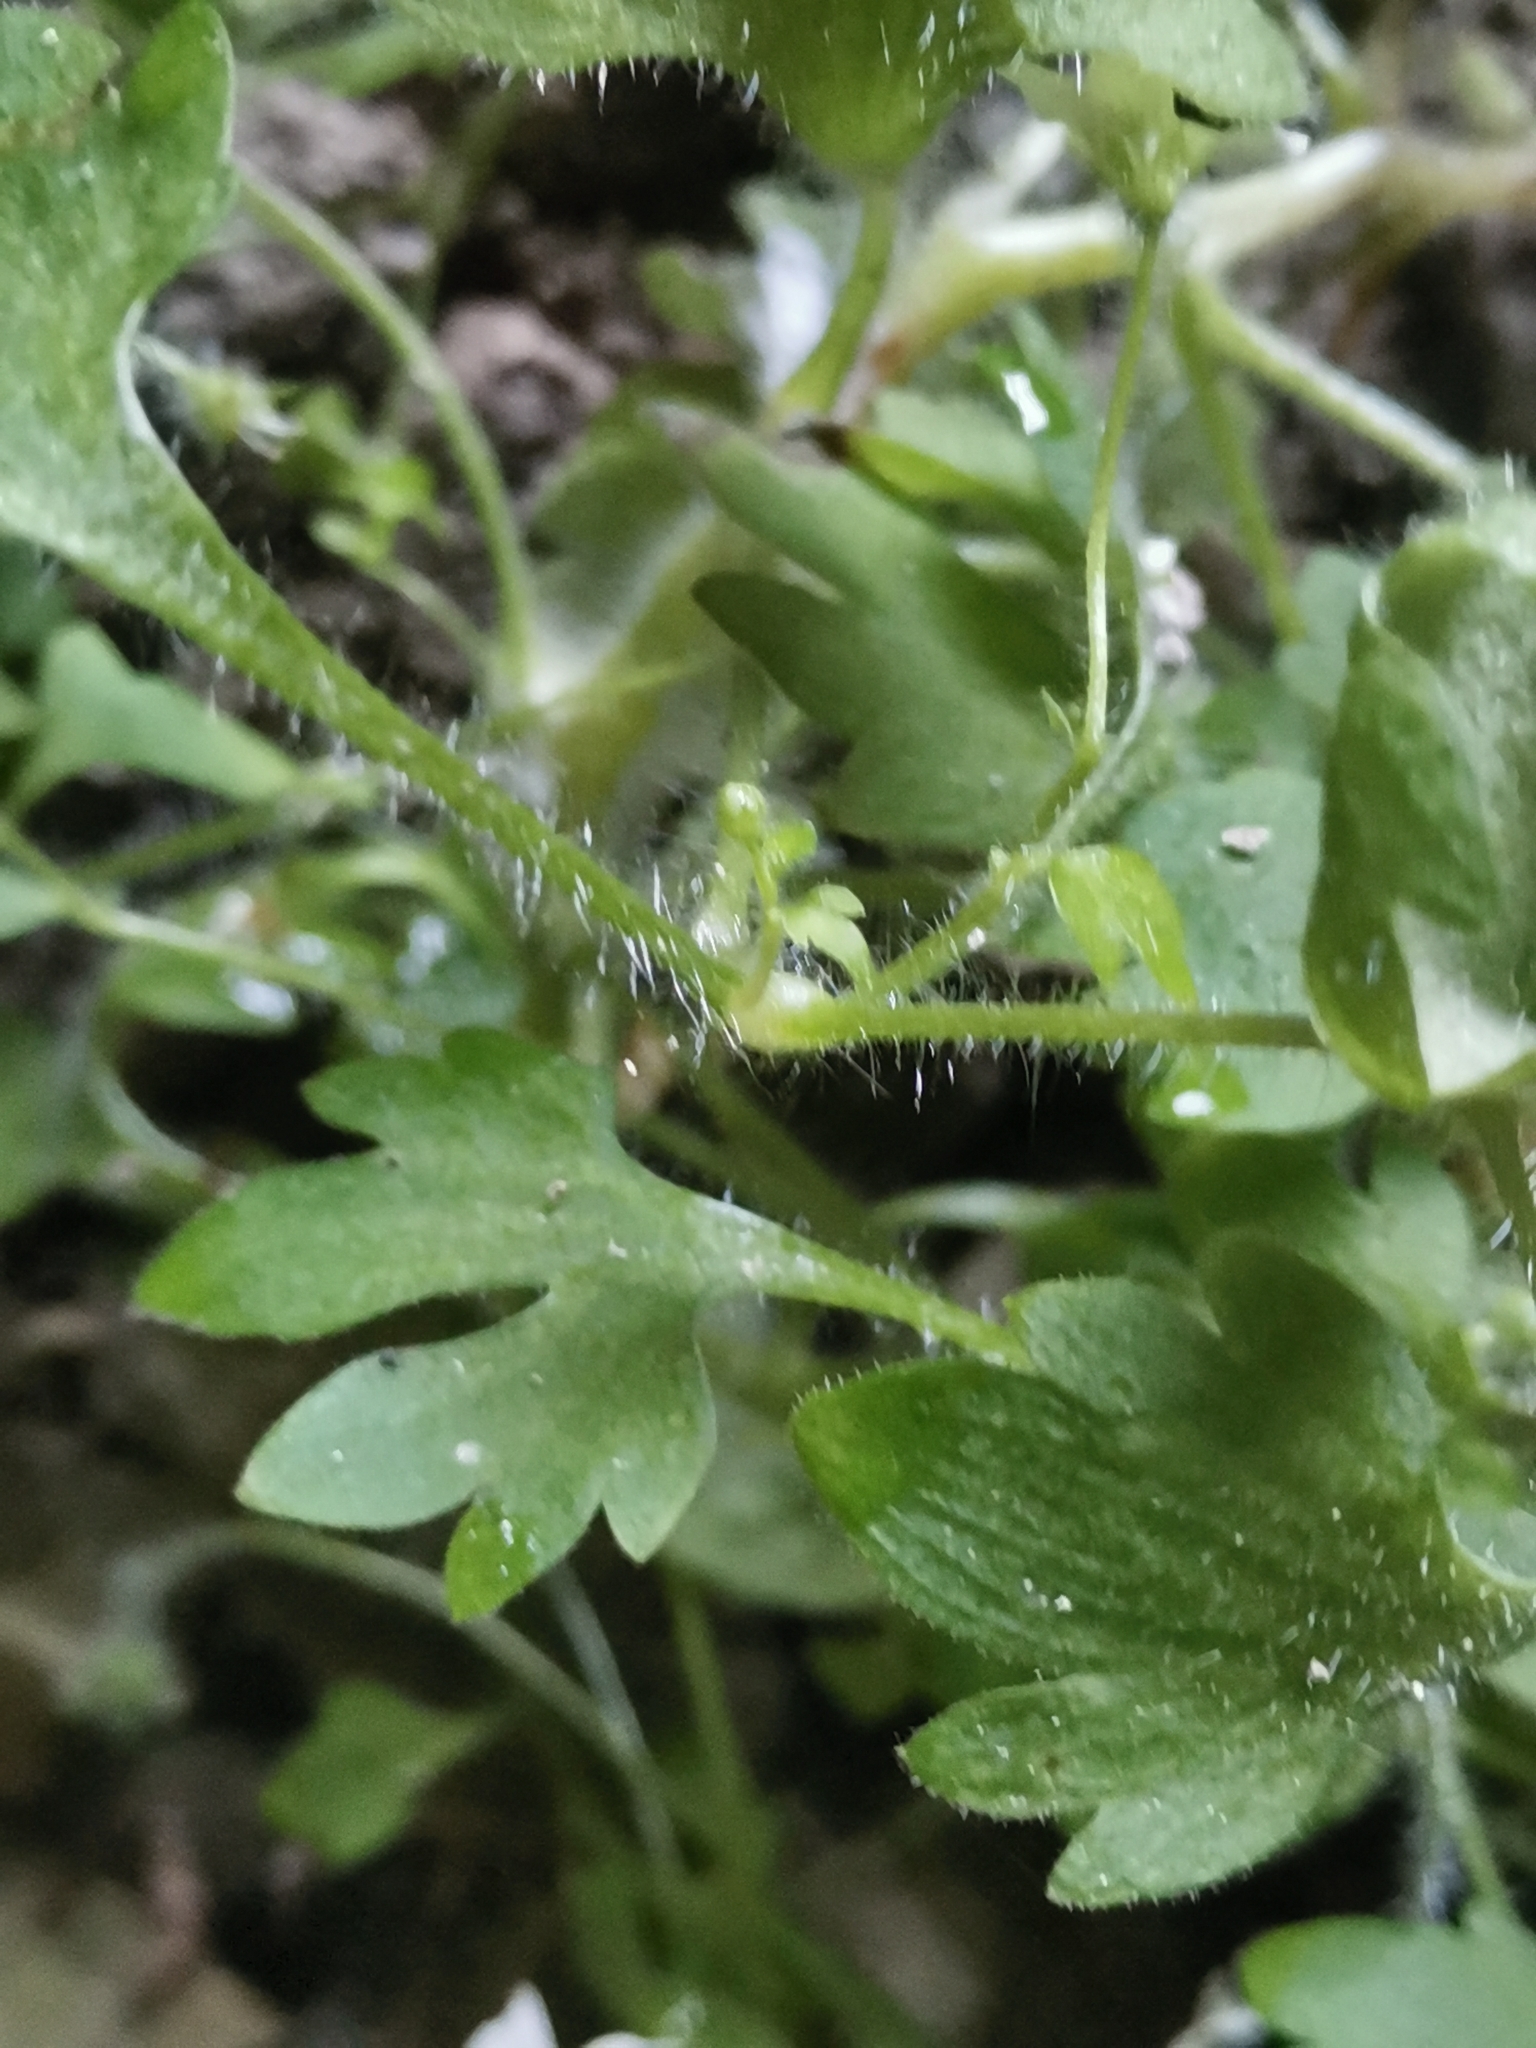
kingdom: Plantae
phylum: Tracheophyta
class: Magnoliopsida
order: Saxifragales
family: Saxifragaceae
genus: Saxifraga
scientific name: Saxifraga petraea
